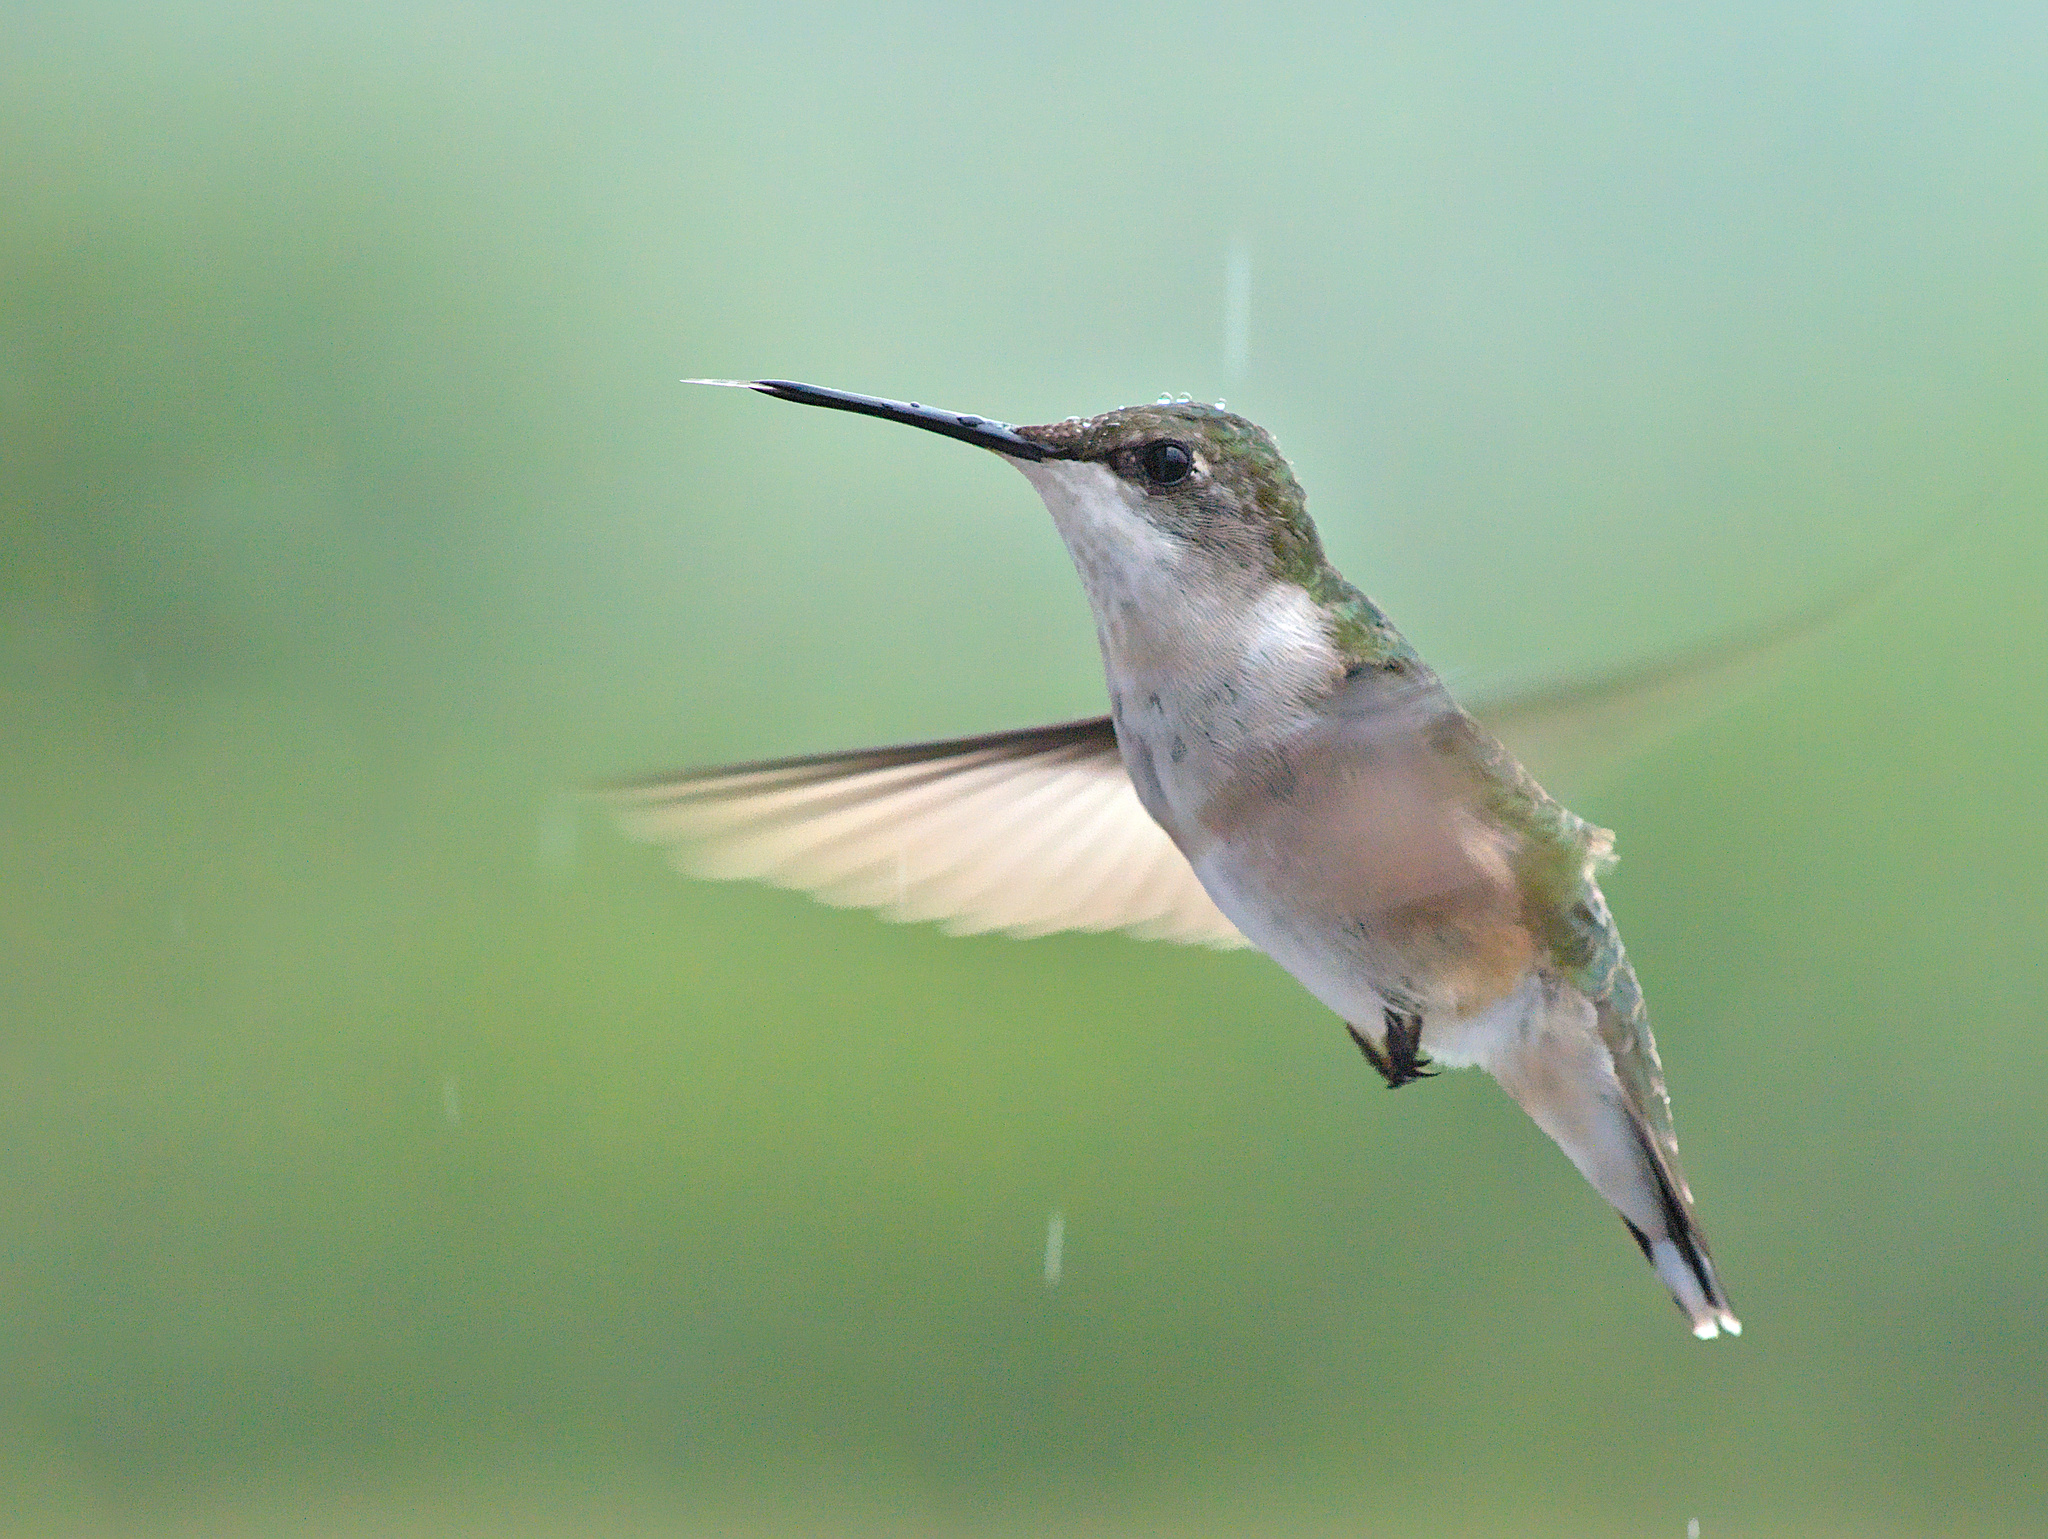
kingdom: Animalia
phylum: Chordata
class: Aves
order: Apodiformes
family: Trochilidae
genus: Archilochus
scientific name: Archilochus colubris
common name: Ruby-throated hummingbird
